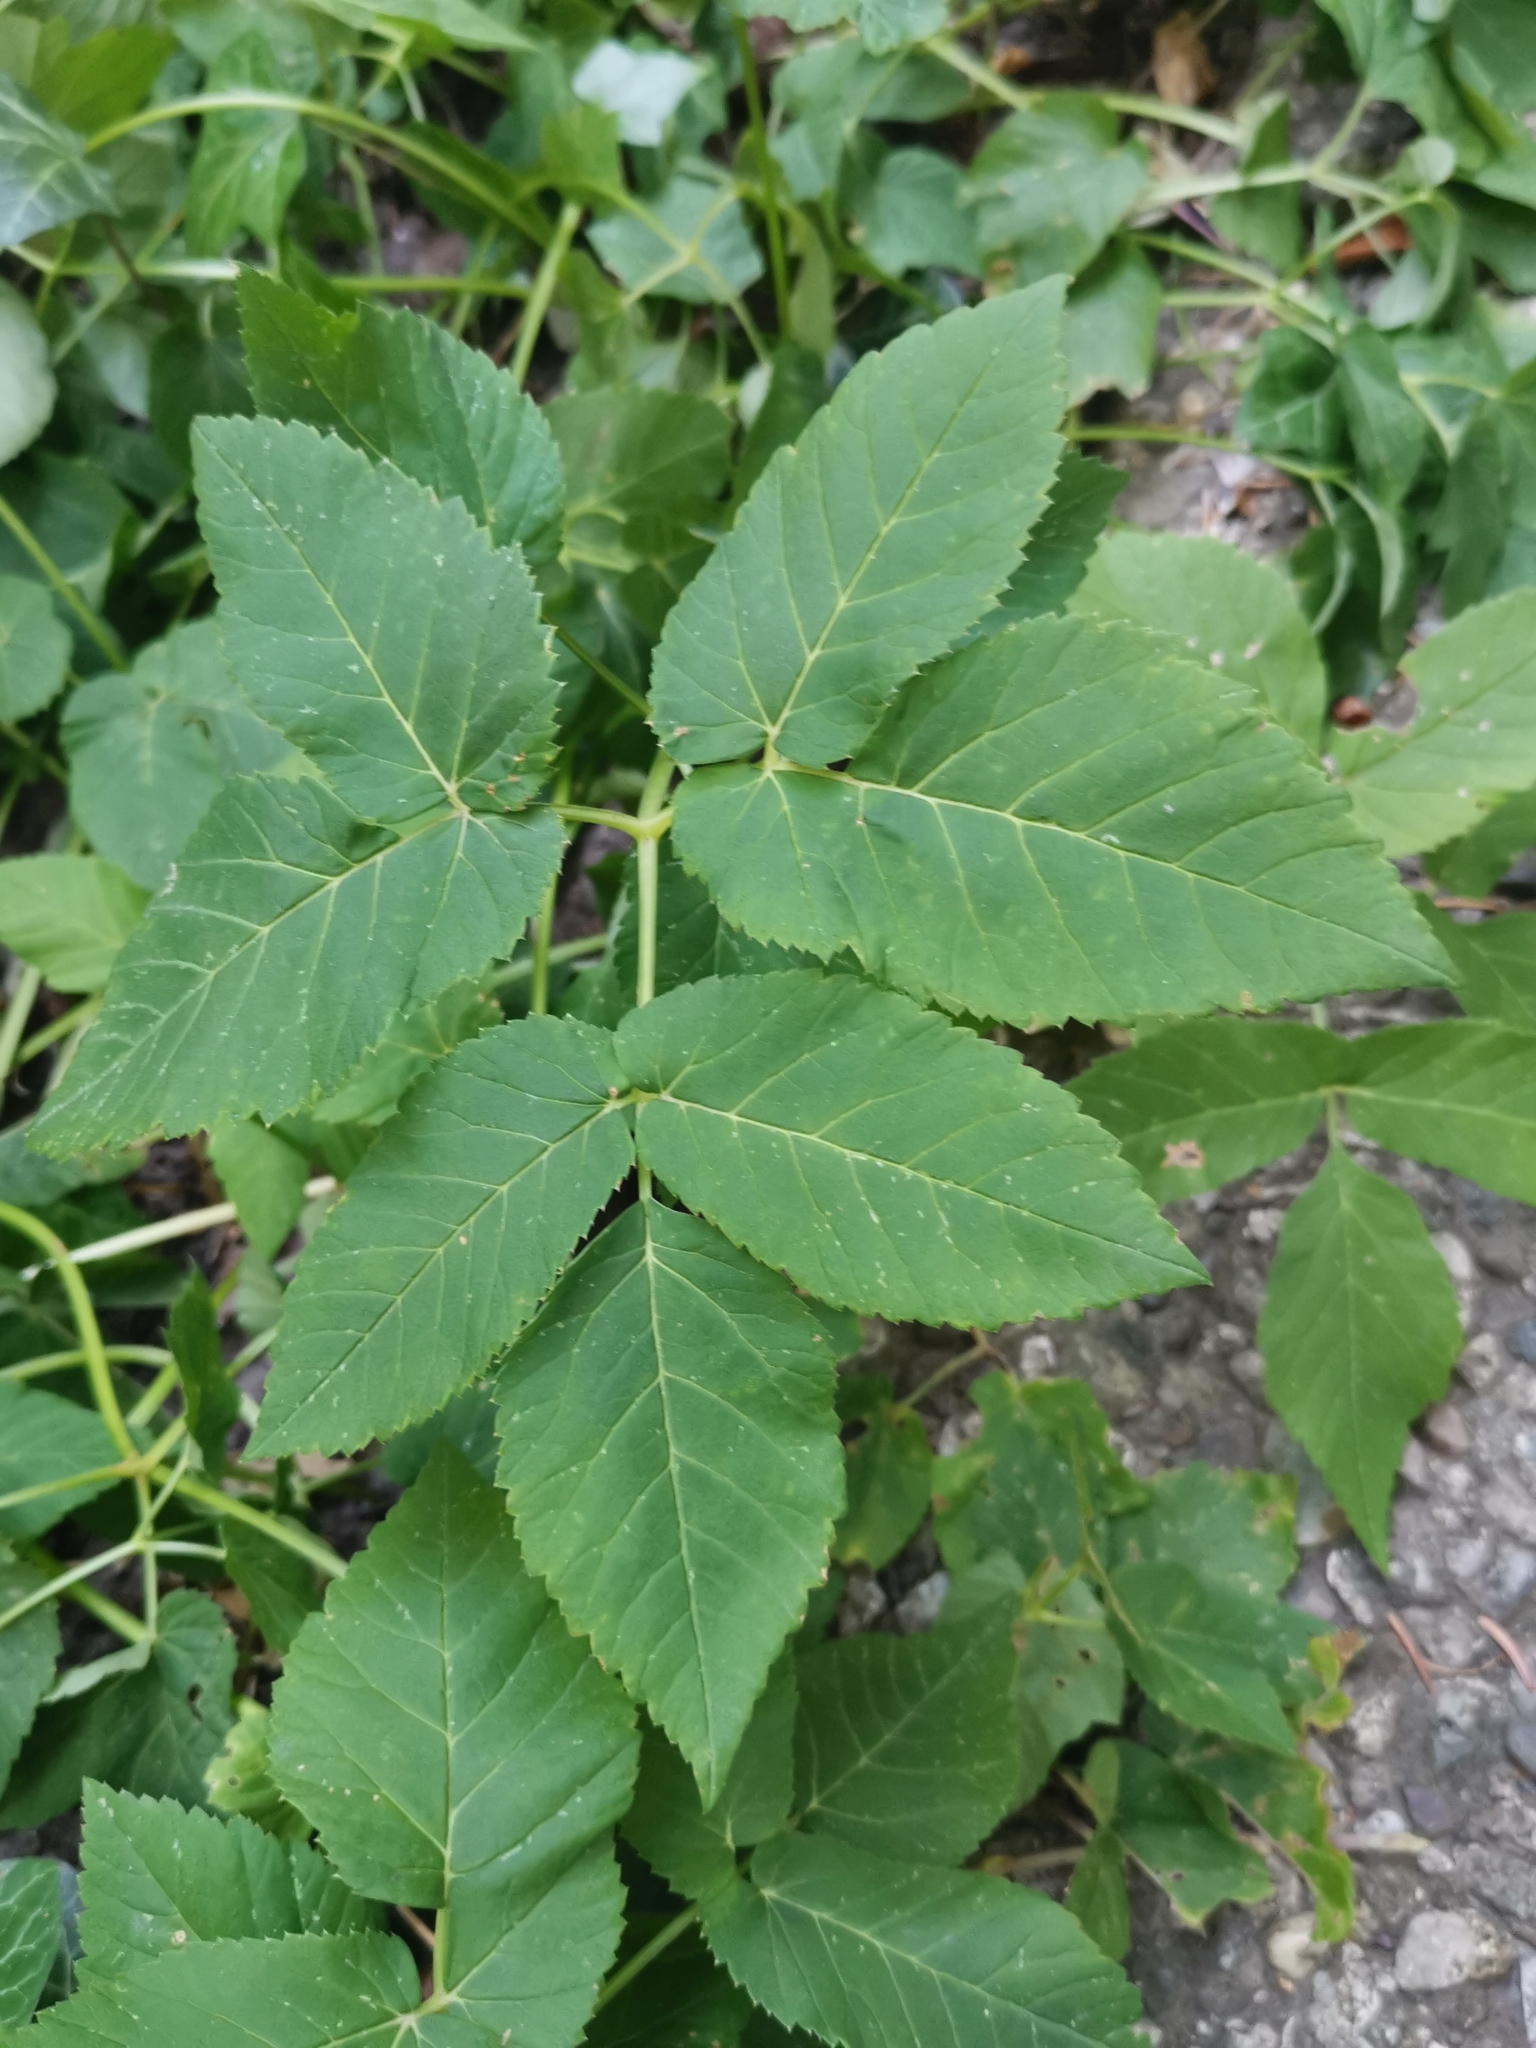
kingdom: Plantae
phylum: Tracheophyta
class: Magnoliopsida
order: Apiales
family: Apiaceae
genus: Aegopodium
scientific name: Aegopodium podagraria
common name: Ground-elder
